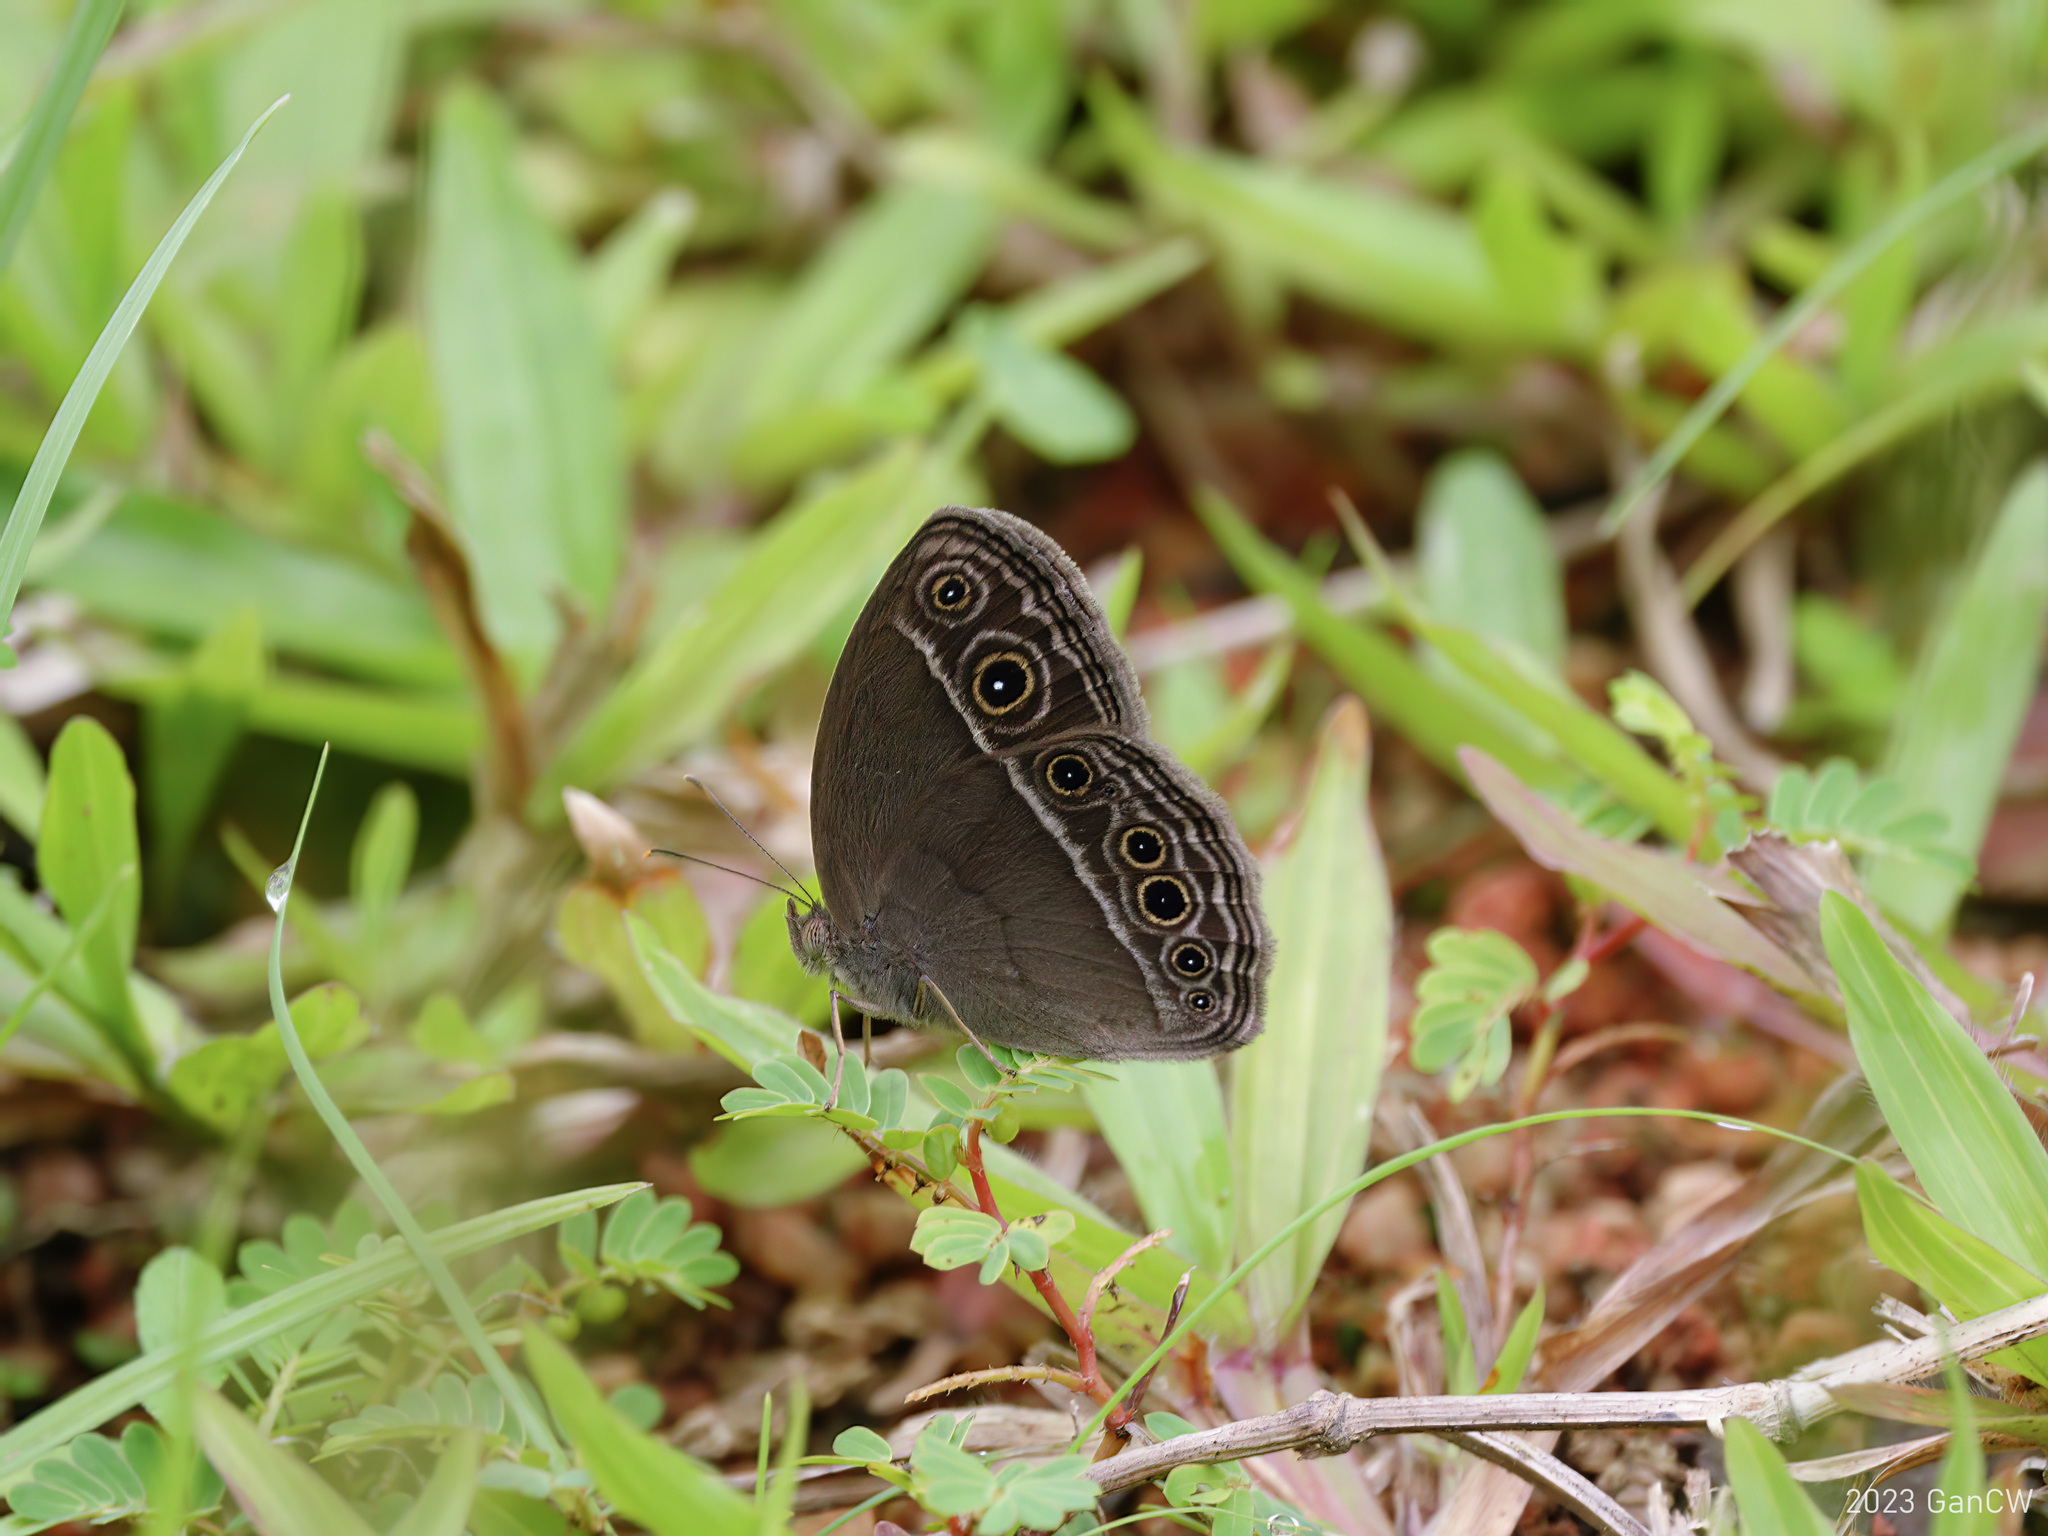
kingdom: Animalia
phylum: Arthropoda
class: Insecta
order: Lepidoptera
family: Nymphalidae
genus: Mycalesis
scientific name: Mycalesis mineus
